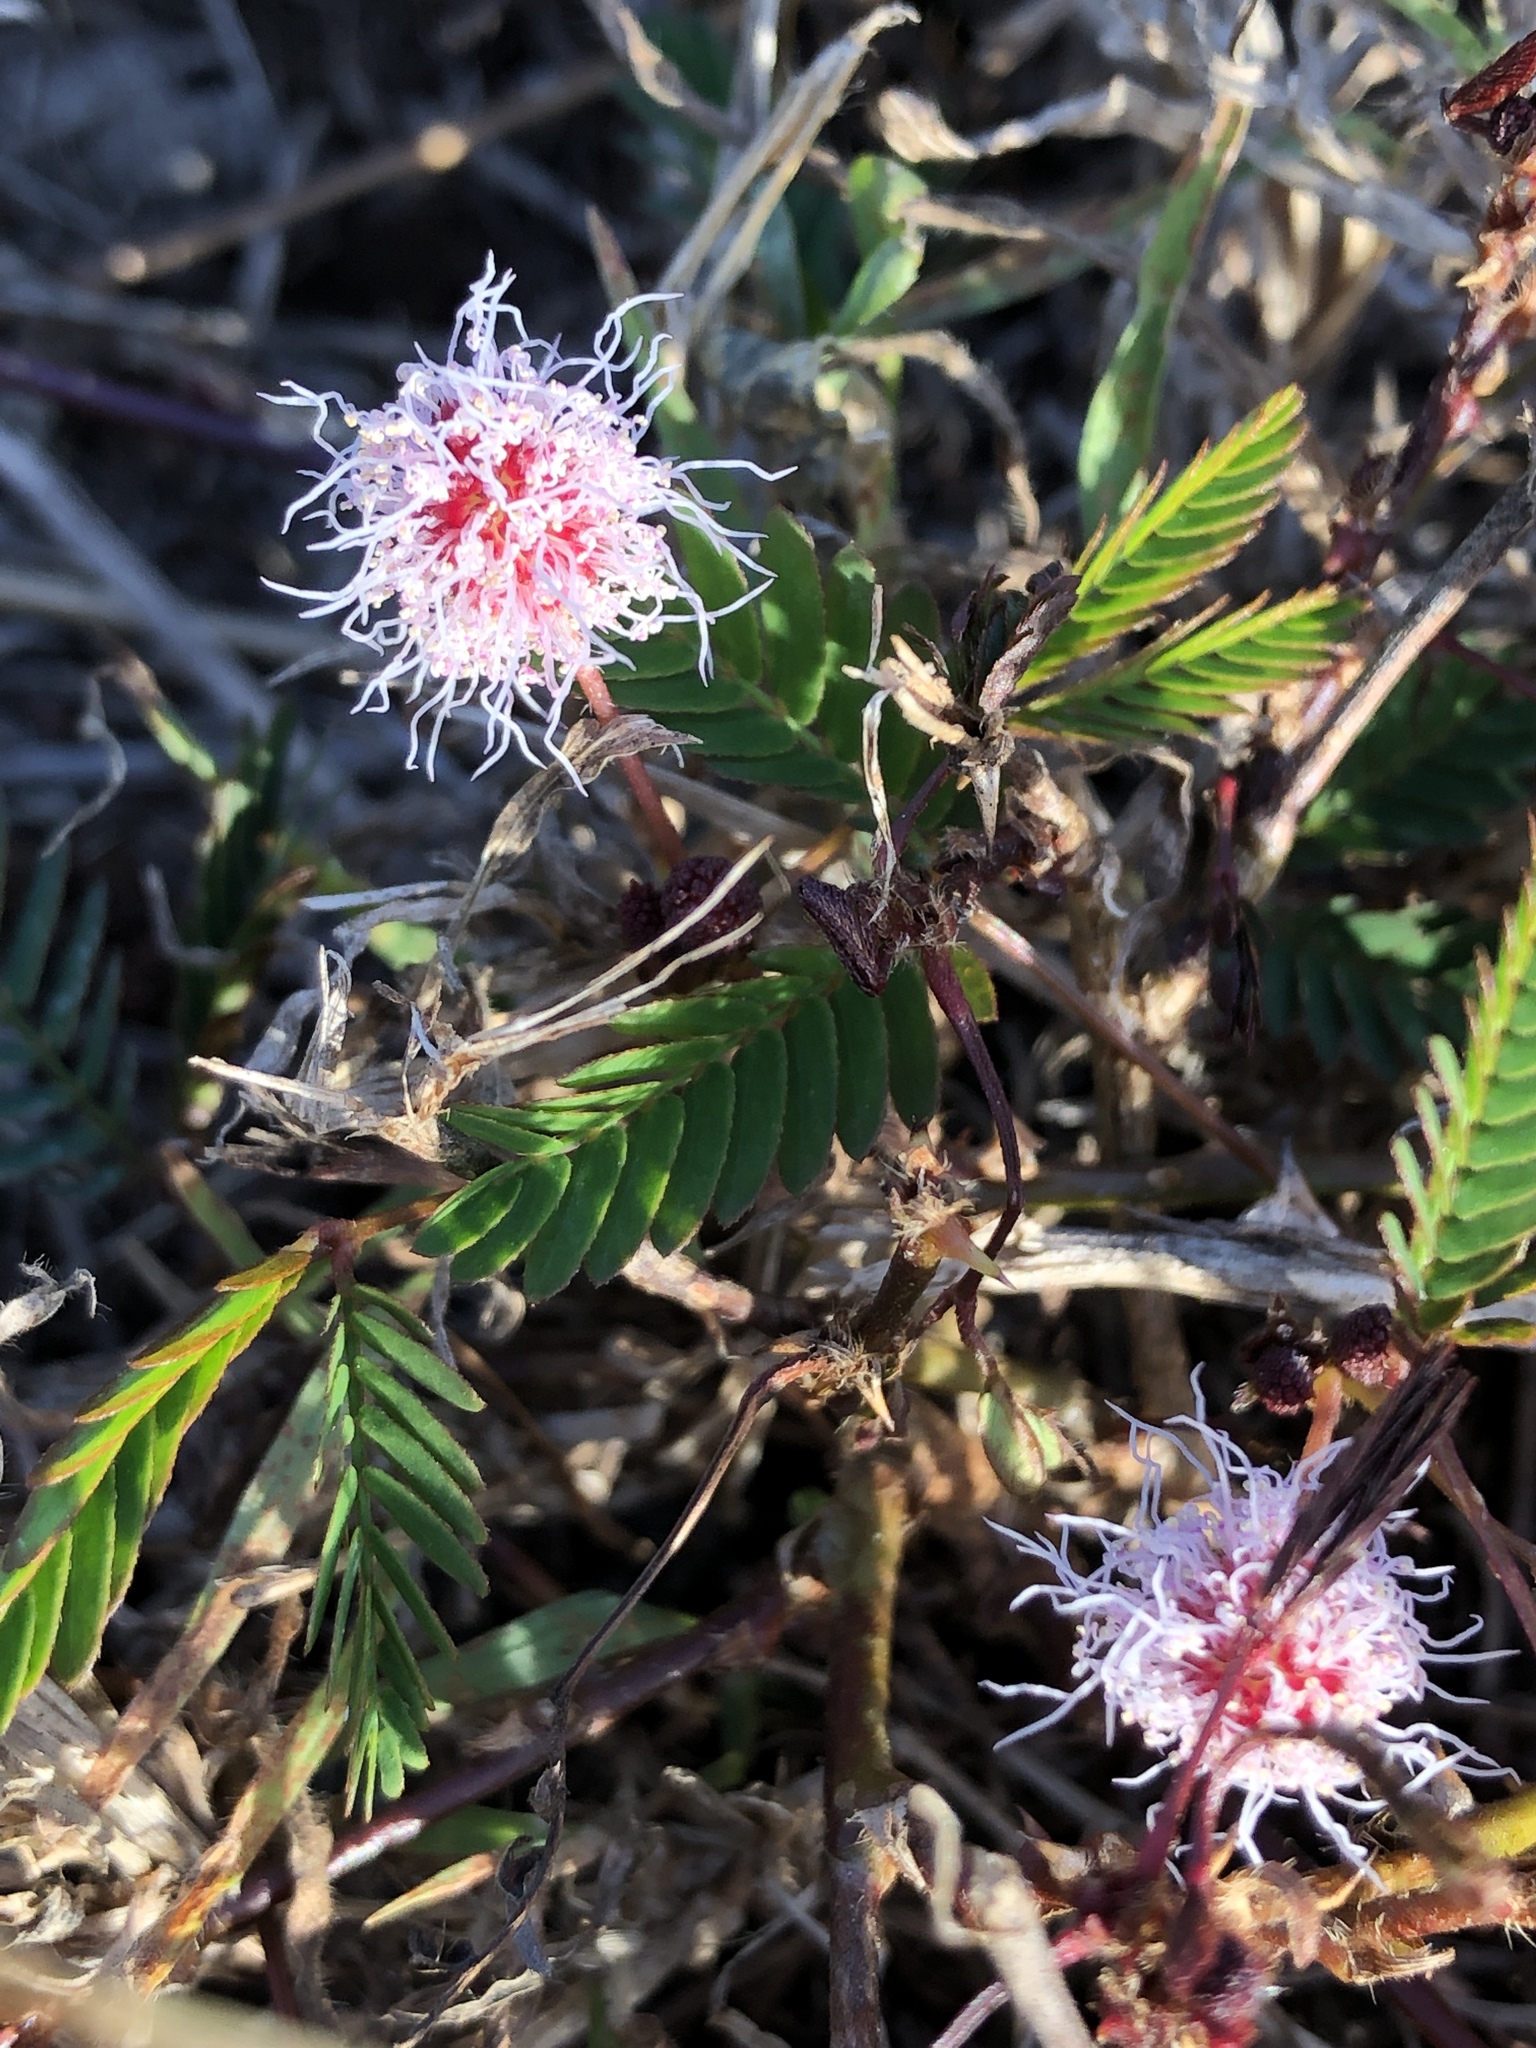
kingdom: Plantae
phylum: Tracheophyta
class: Magnoliopsida
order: Fabales
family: Fabaceae
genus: Mimosa
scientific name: Mimosa pudica
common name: Sensitive plant
